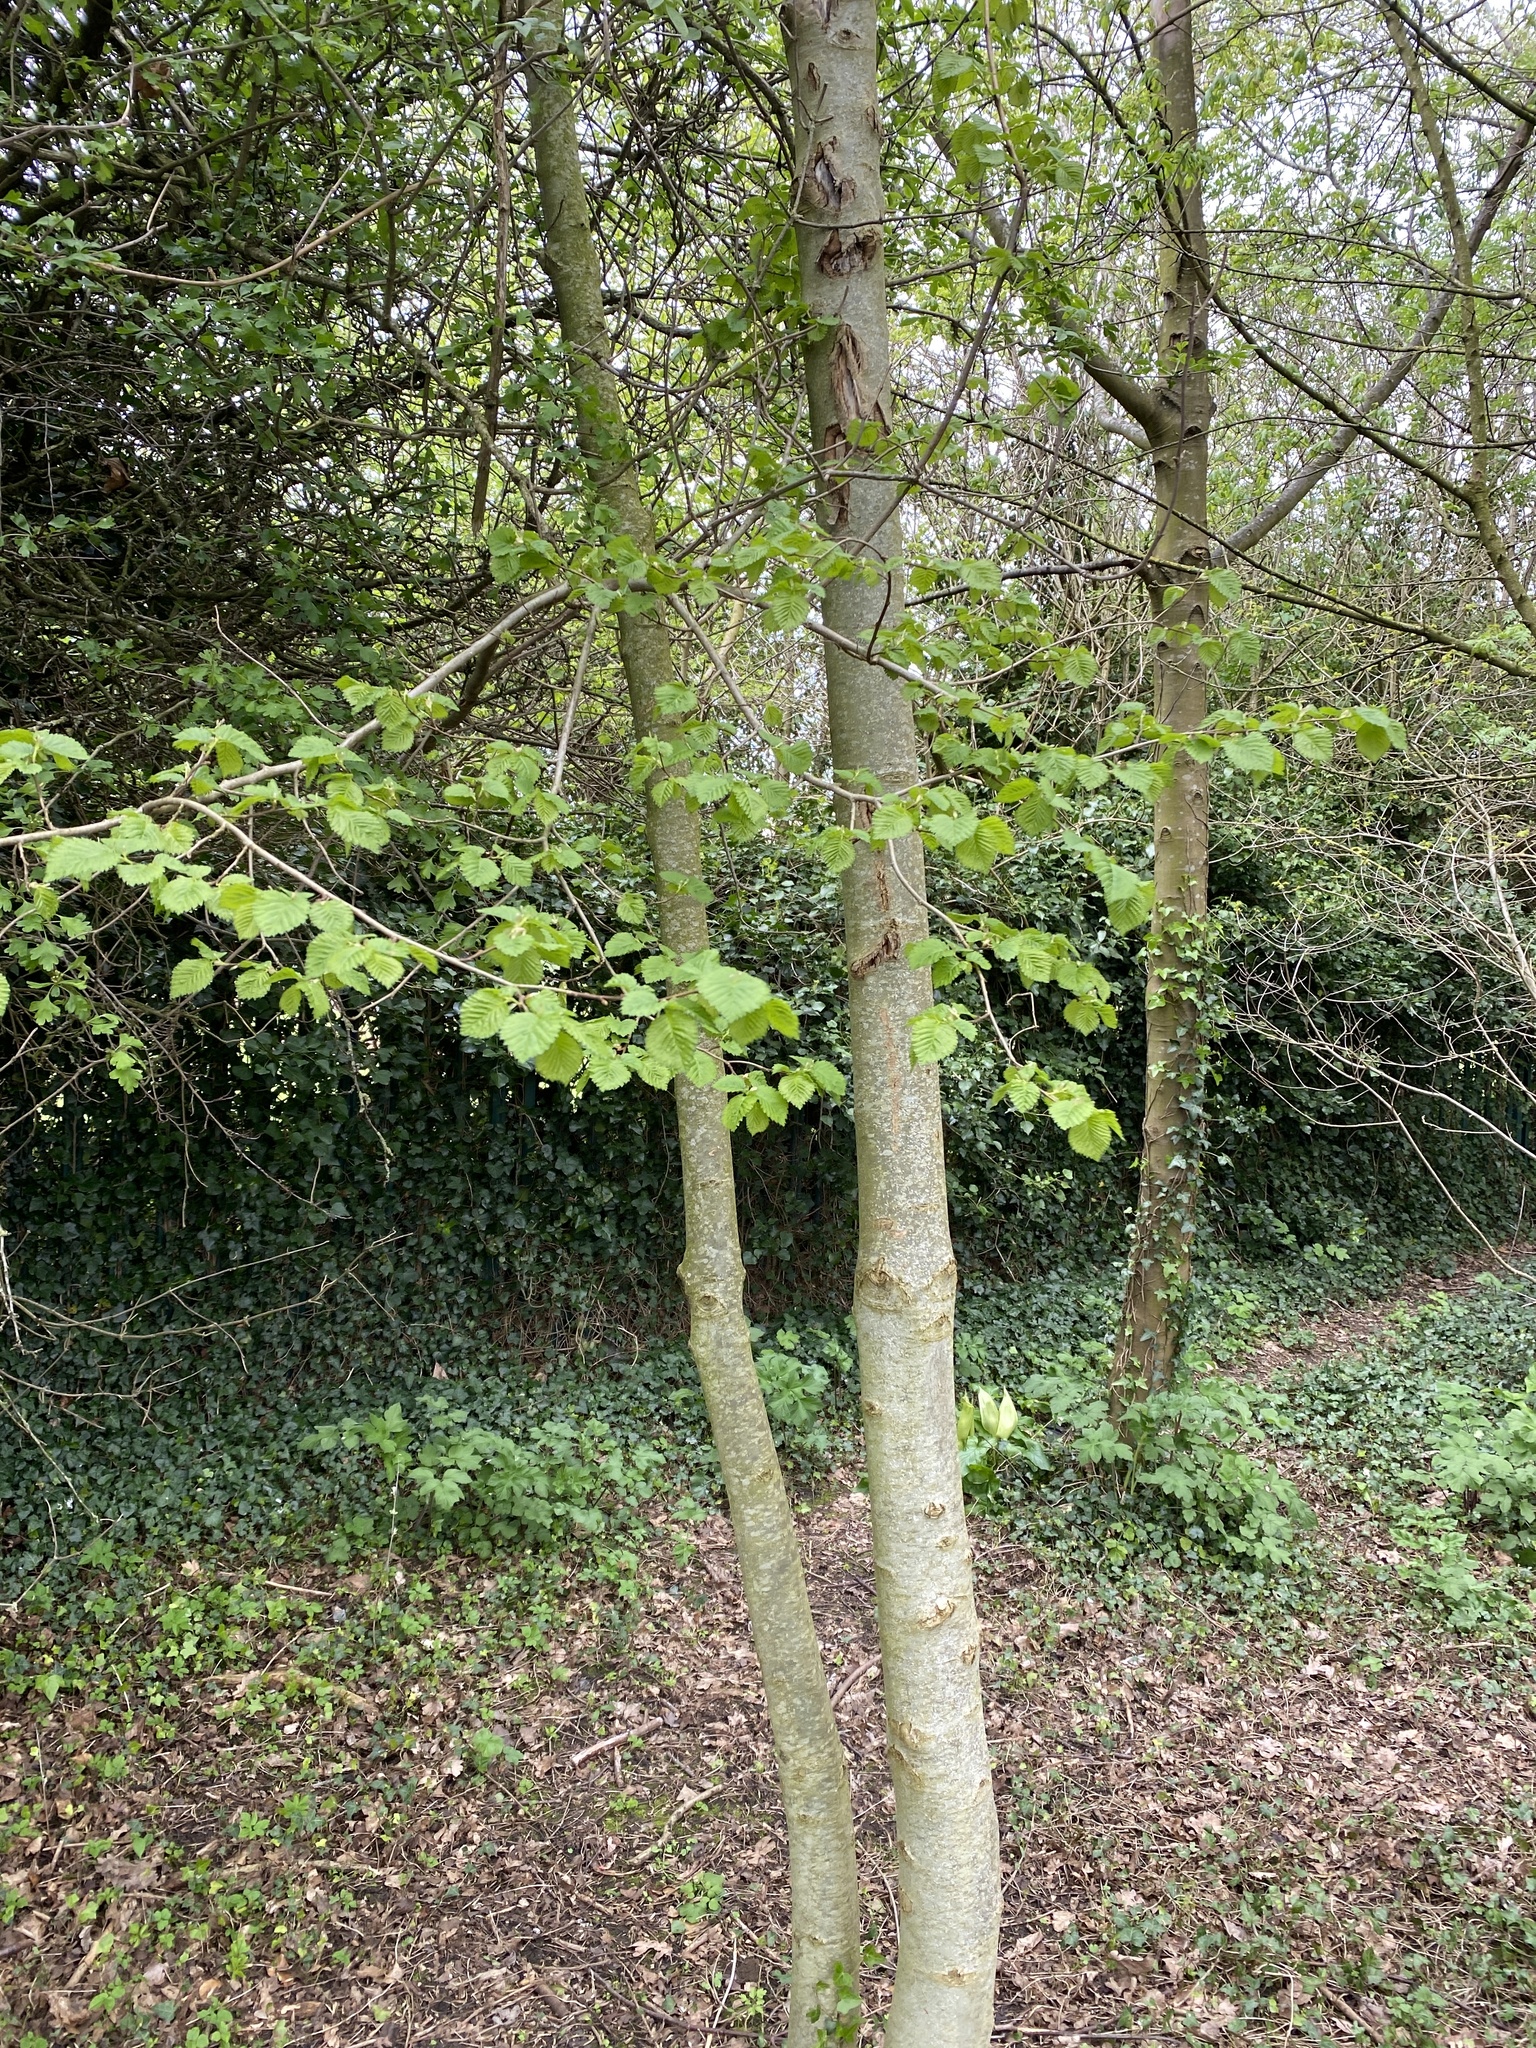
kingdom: Plantae
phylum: Tracheophyta
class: Magnoliopsida
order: Fagales
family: Betulaceae
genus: Corylus
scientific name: Corylus avellana
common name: European hazel
